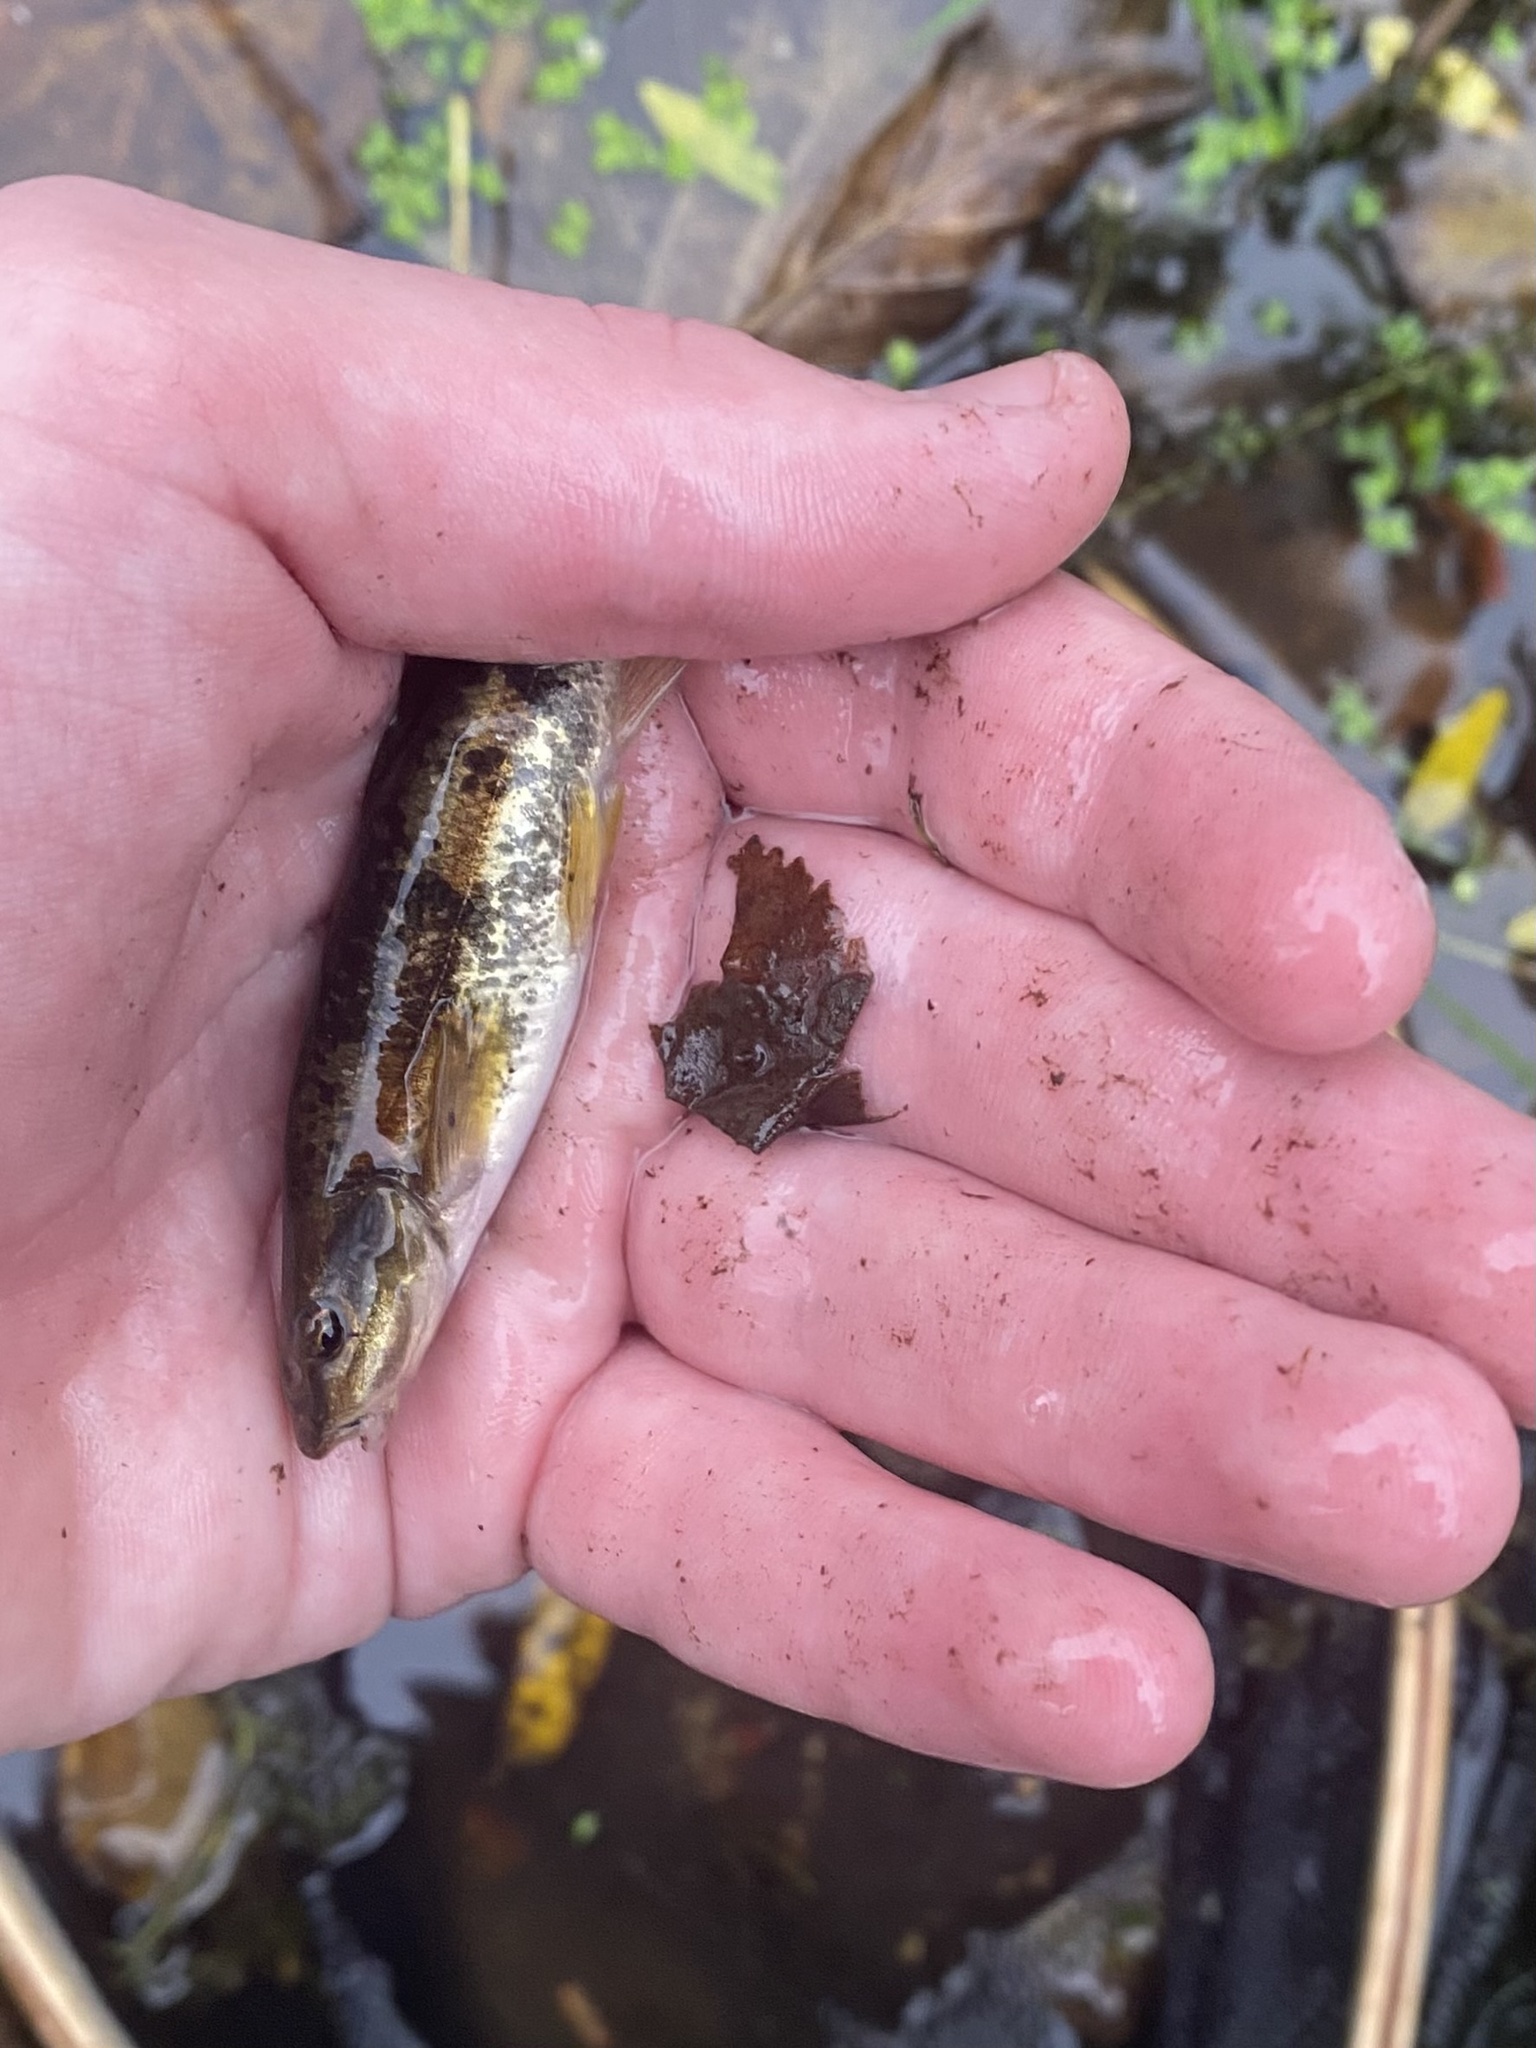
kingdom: Animalia
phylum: Chordata
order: Cypriniformes
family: Cyprinidae
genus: Rhinichthys
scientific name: Rhinichthys obtusus
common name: Western blacknose dace
